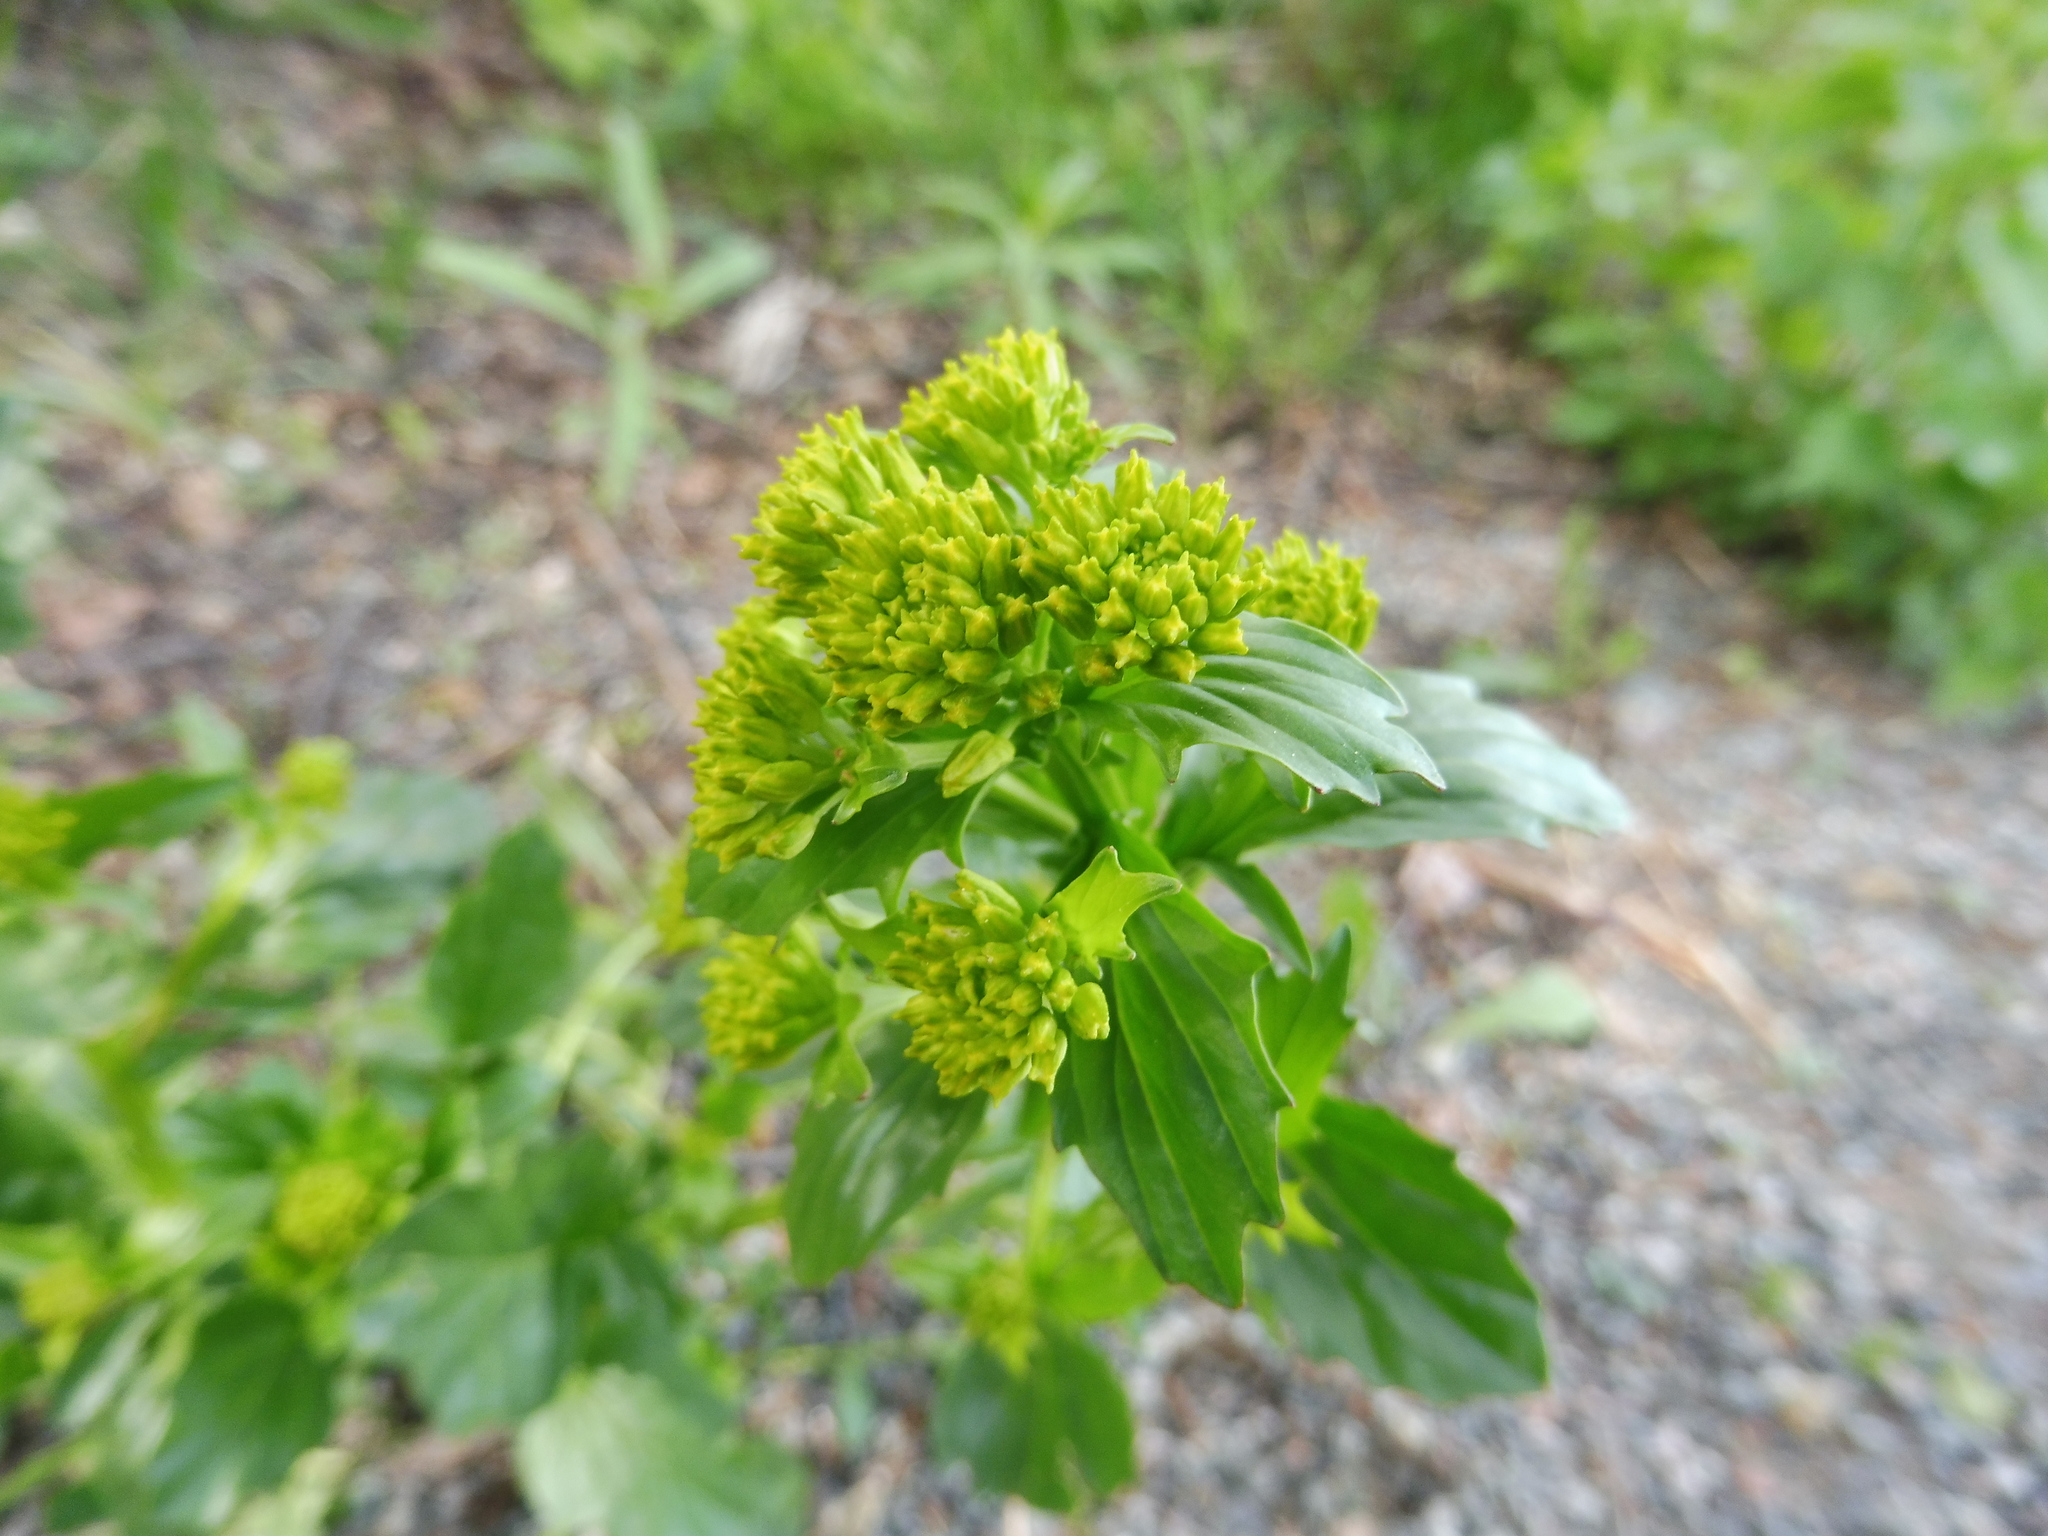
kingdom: Plantae
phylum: Tracheophyta
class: Magnoliopsida
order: Brassicales
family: Brassicaceae
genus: Barbarea
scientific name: Barbarea vulgaris
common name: Cressy-greens
